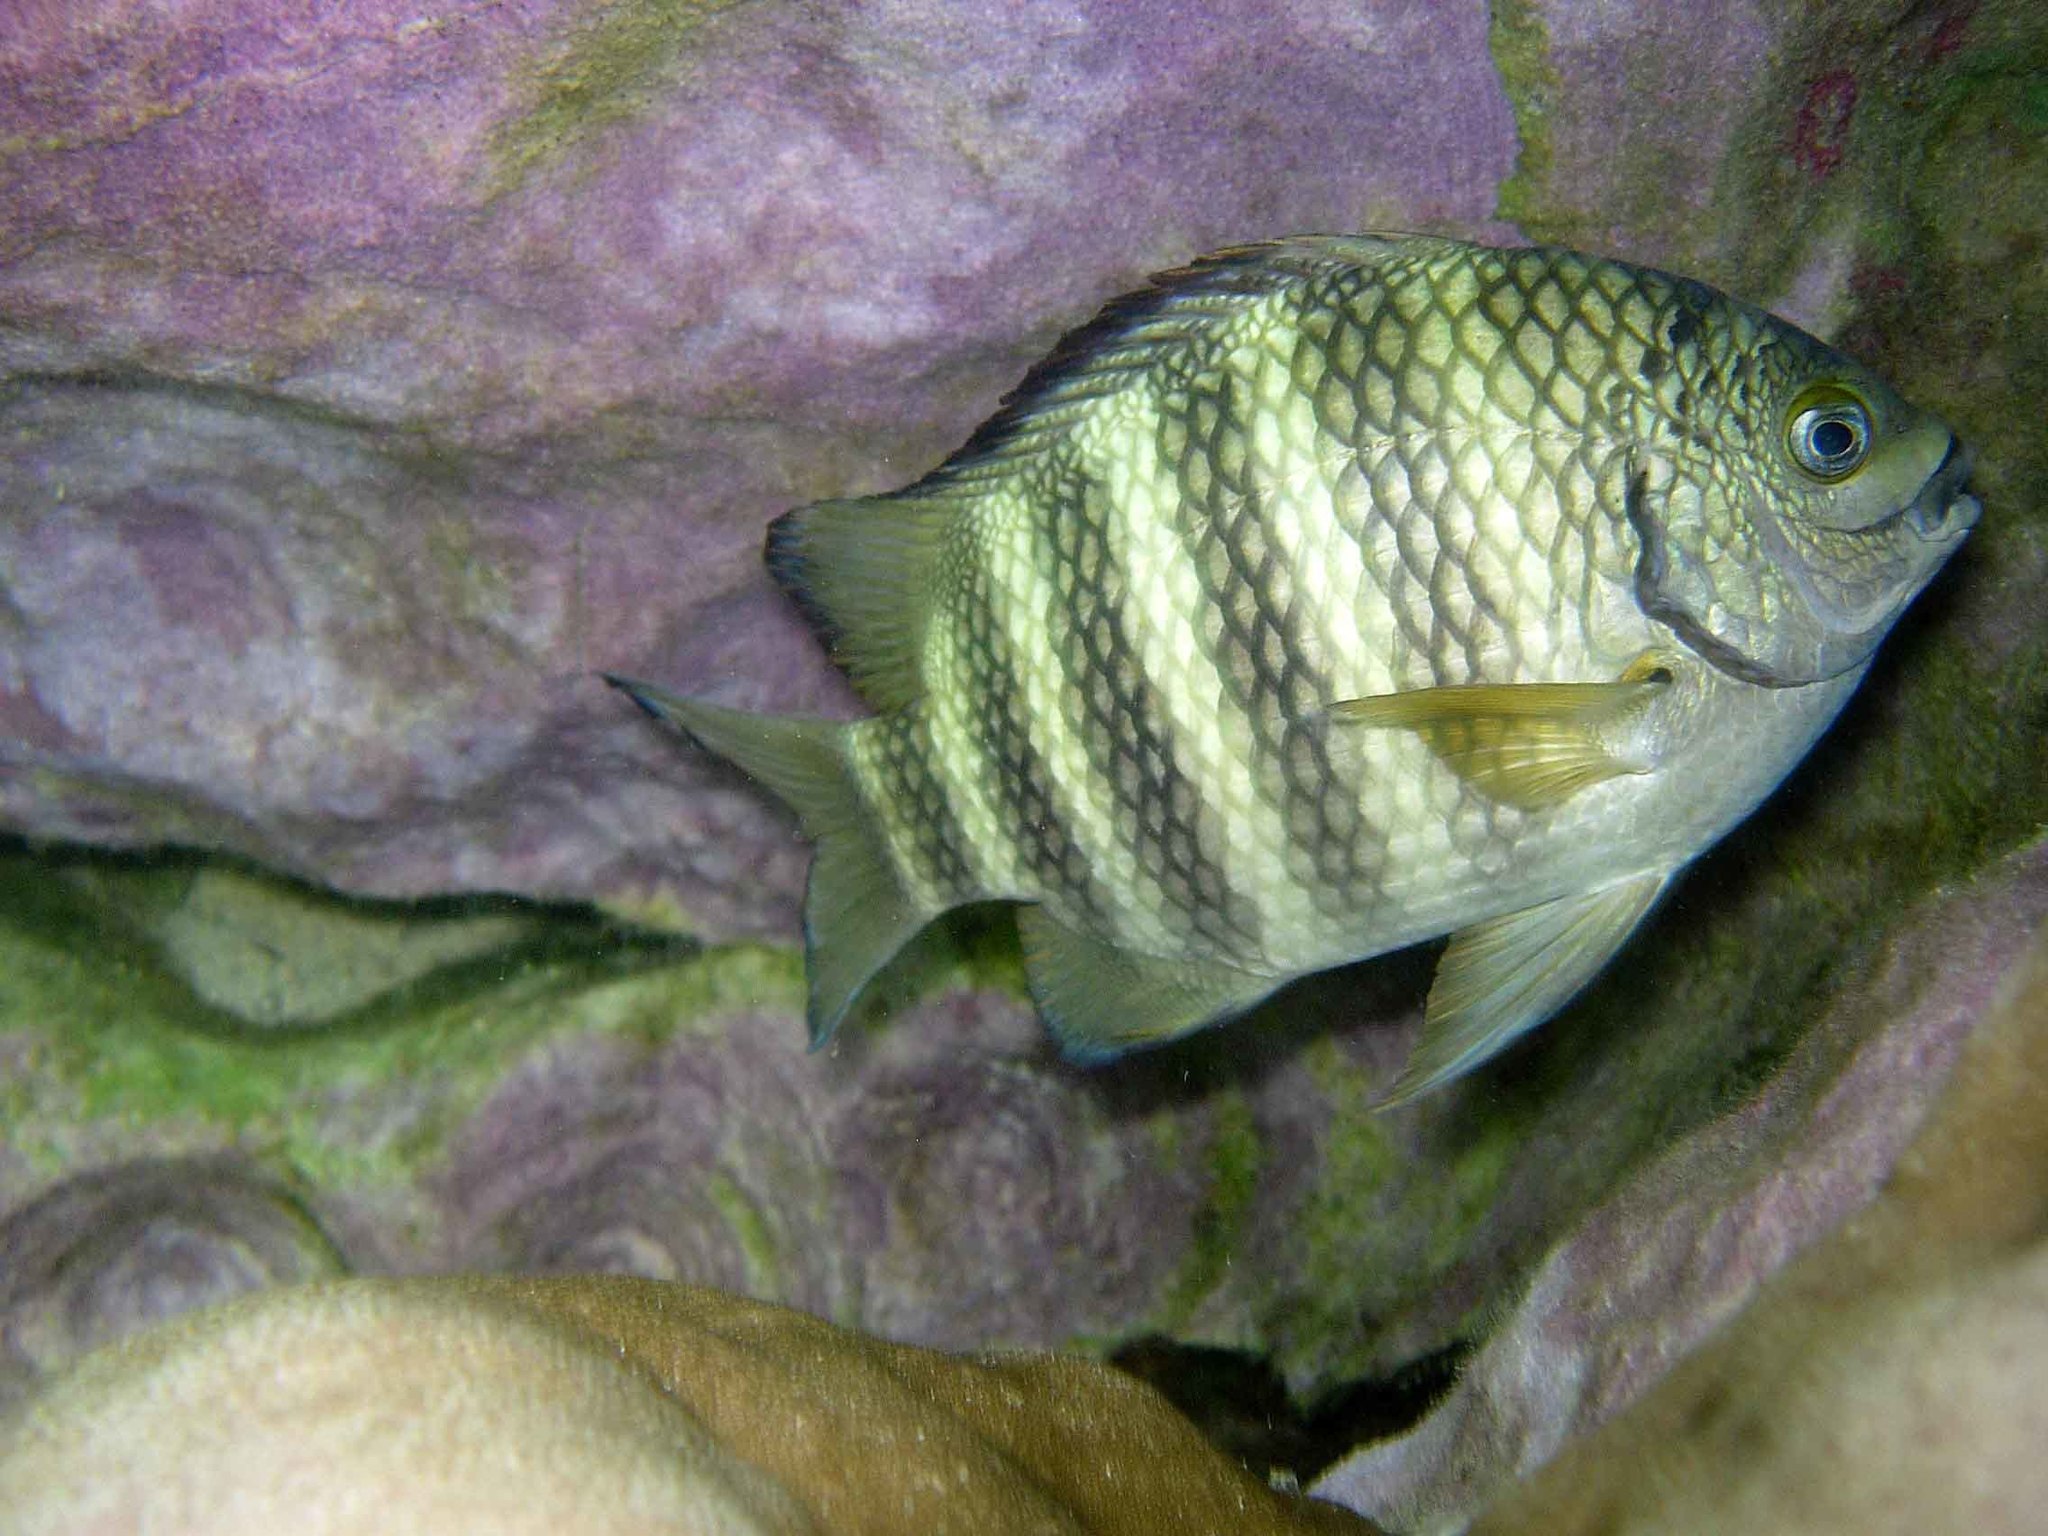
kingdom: Animalia
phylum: Chordata
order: Perciformes
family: Pomacentridae
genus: Abudefduf
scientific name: Abudefduf septemfasciatus
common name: Banded sergeant
